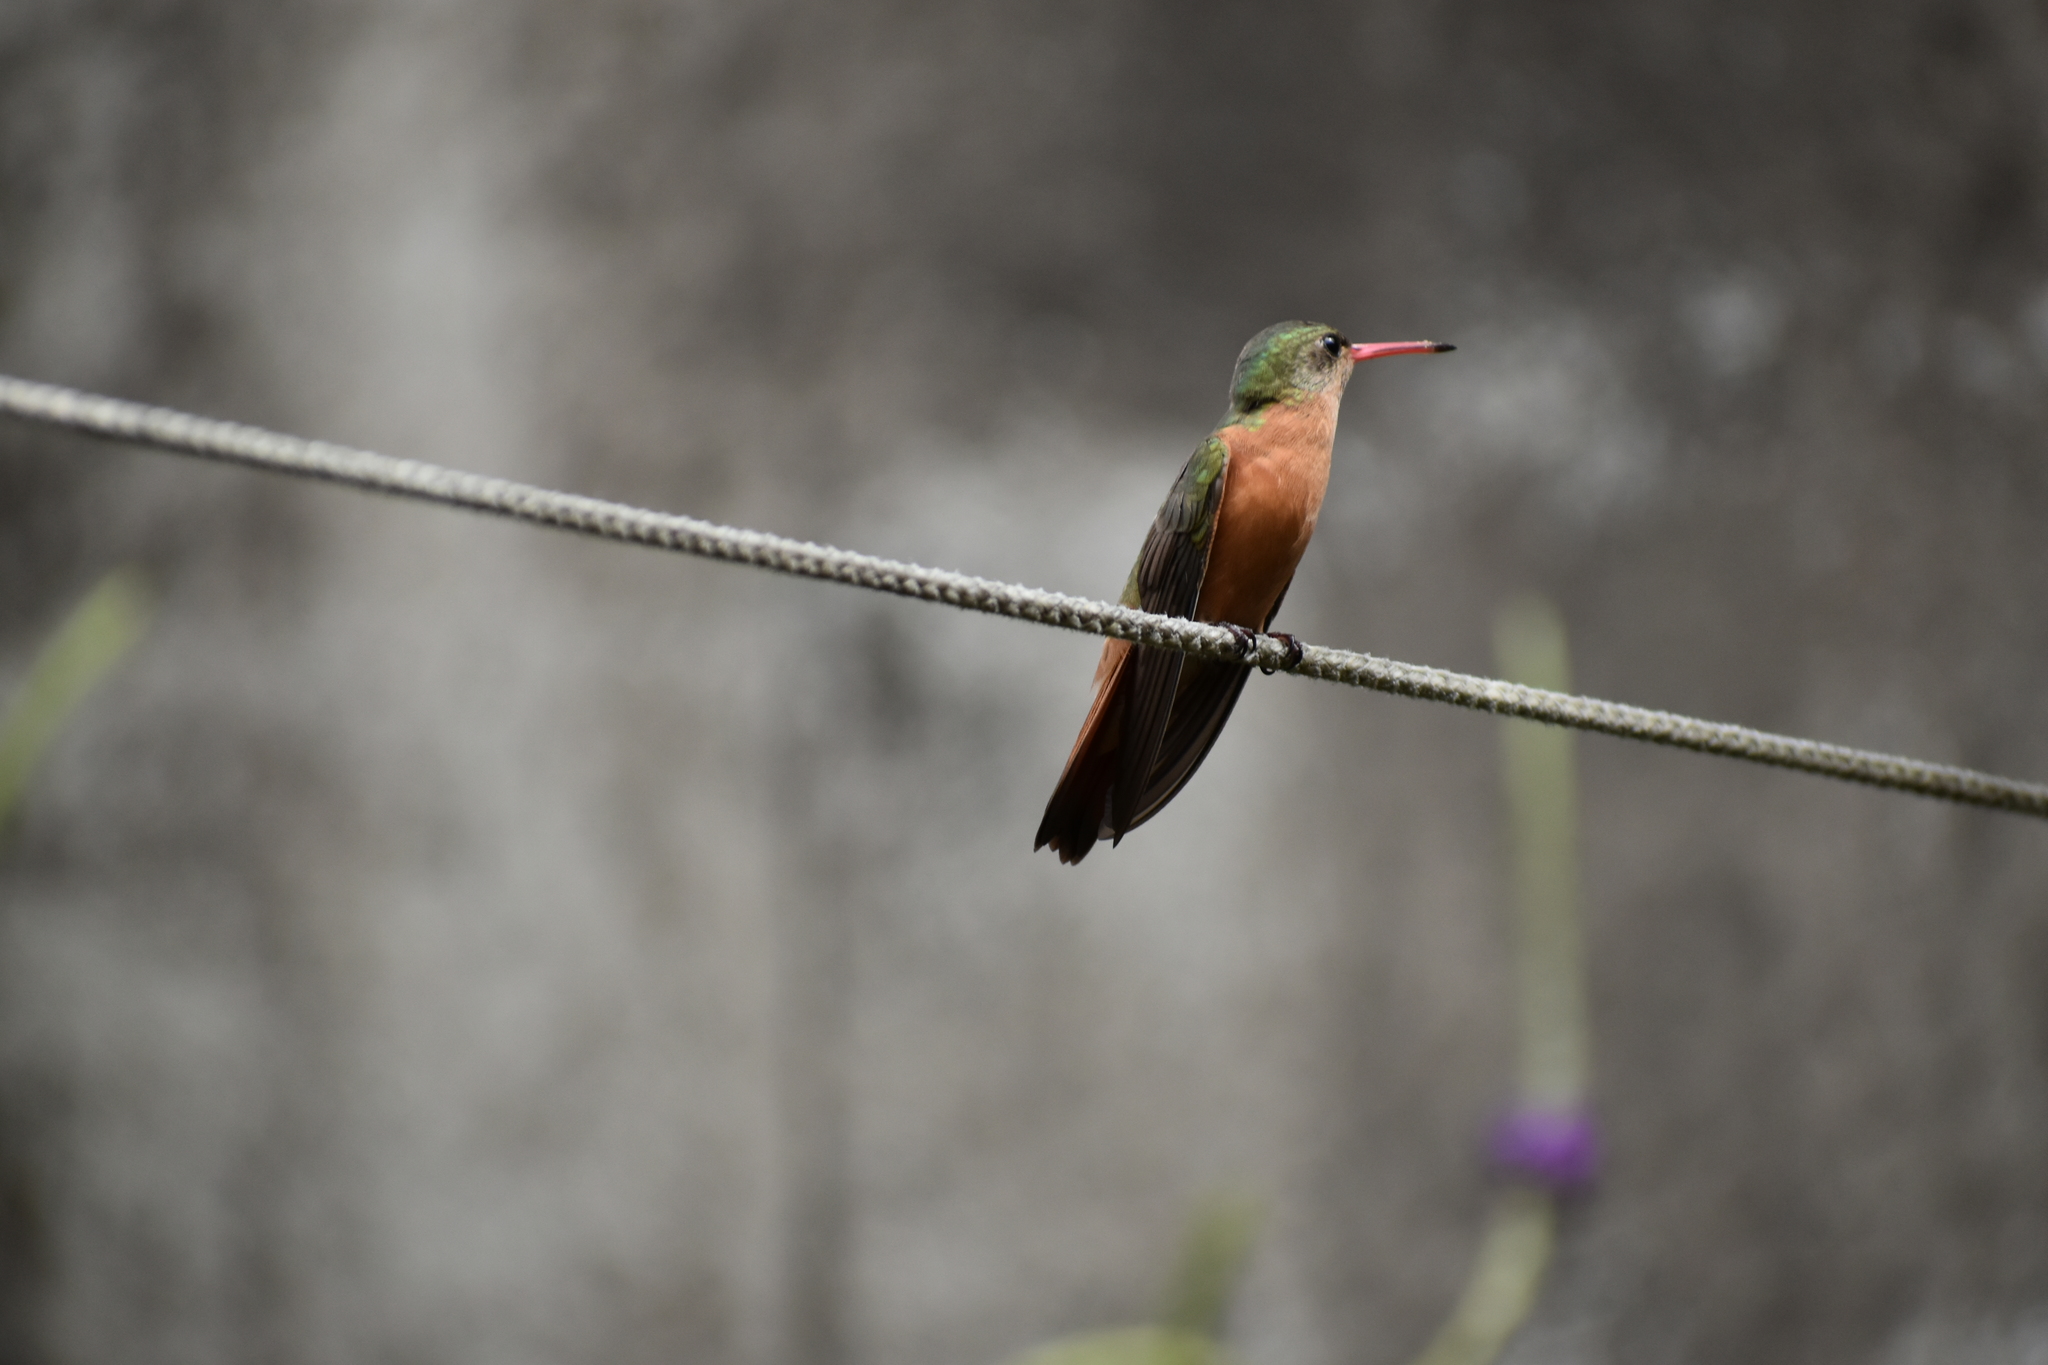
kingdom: Animalia
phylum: Chordata
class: Aves
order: Apodiformes
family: Trochilidae
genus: Amazilia
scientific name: Amazilia rutila
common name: Cinnamon hummingbird
